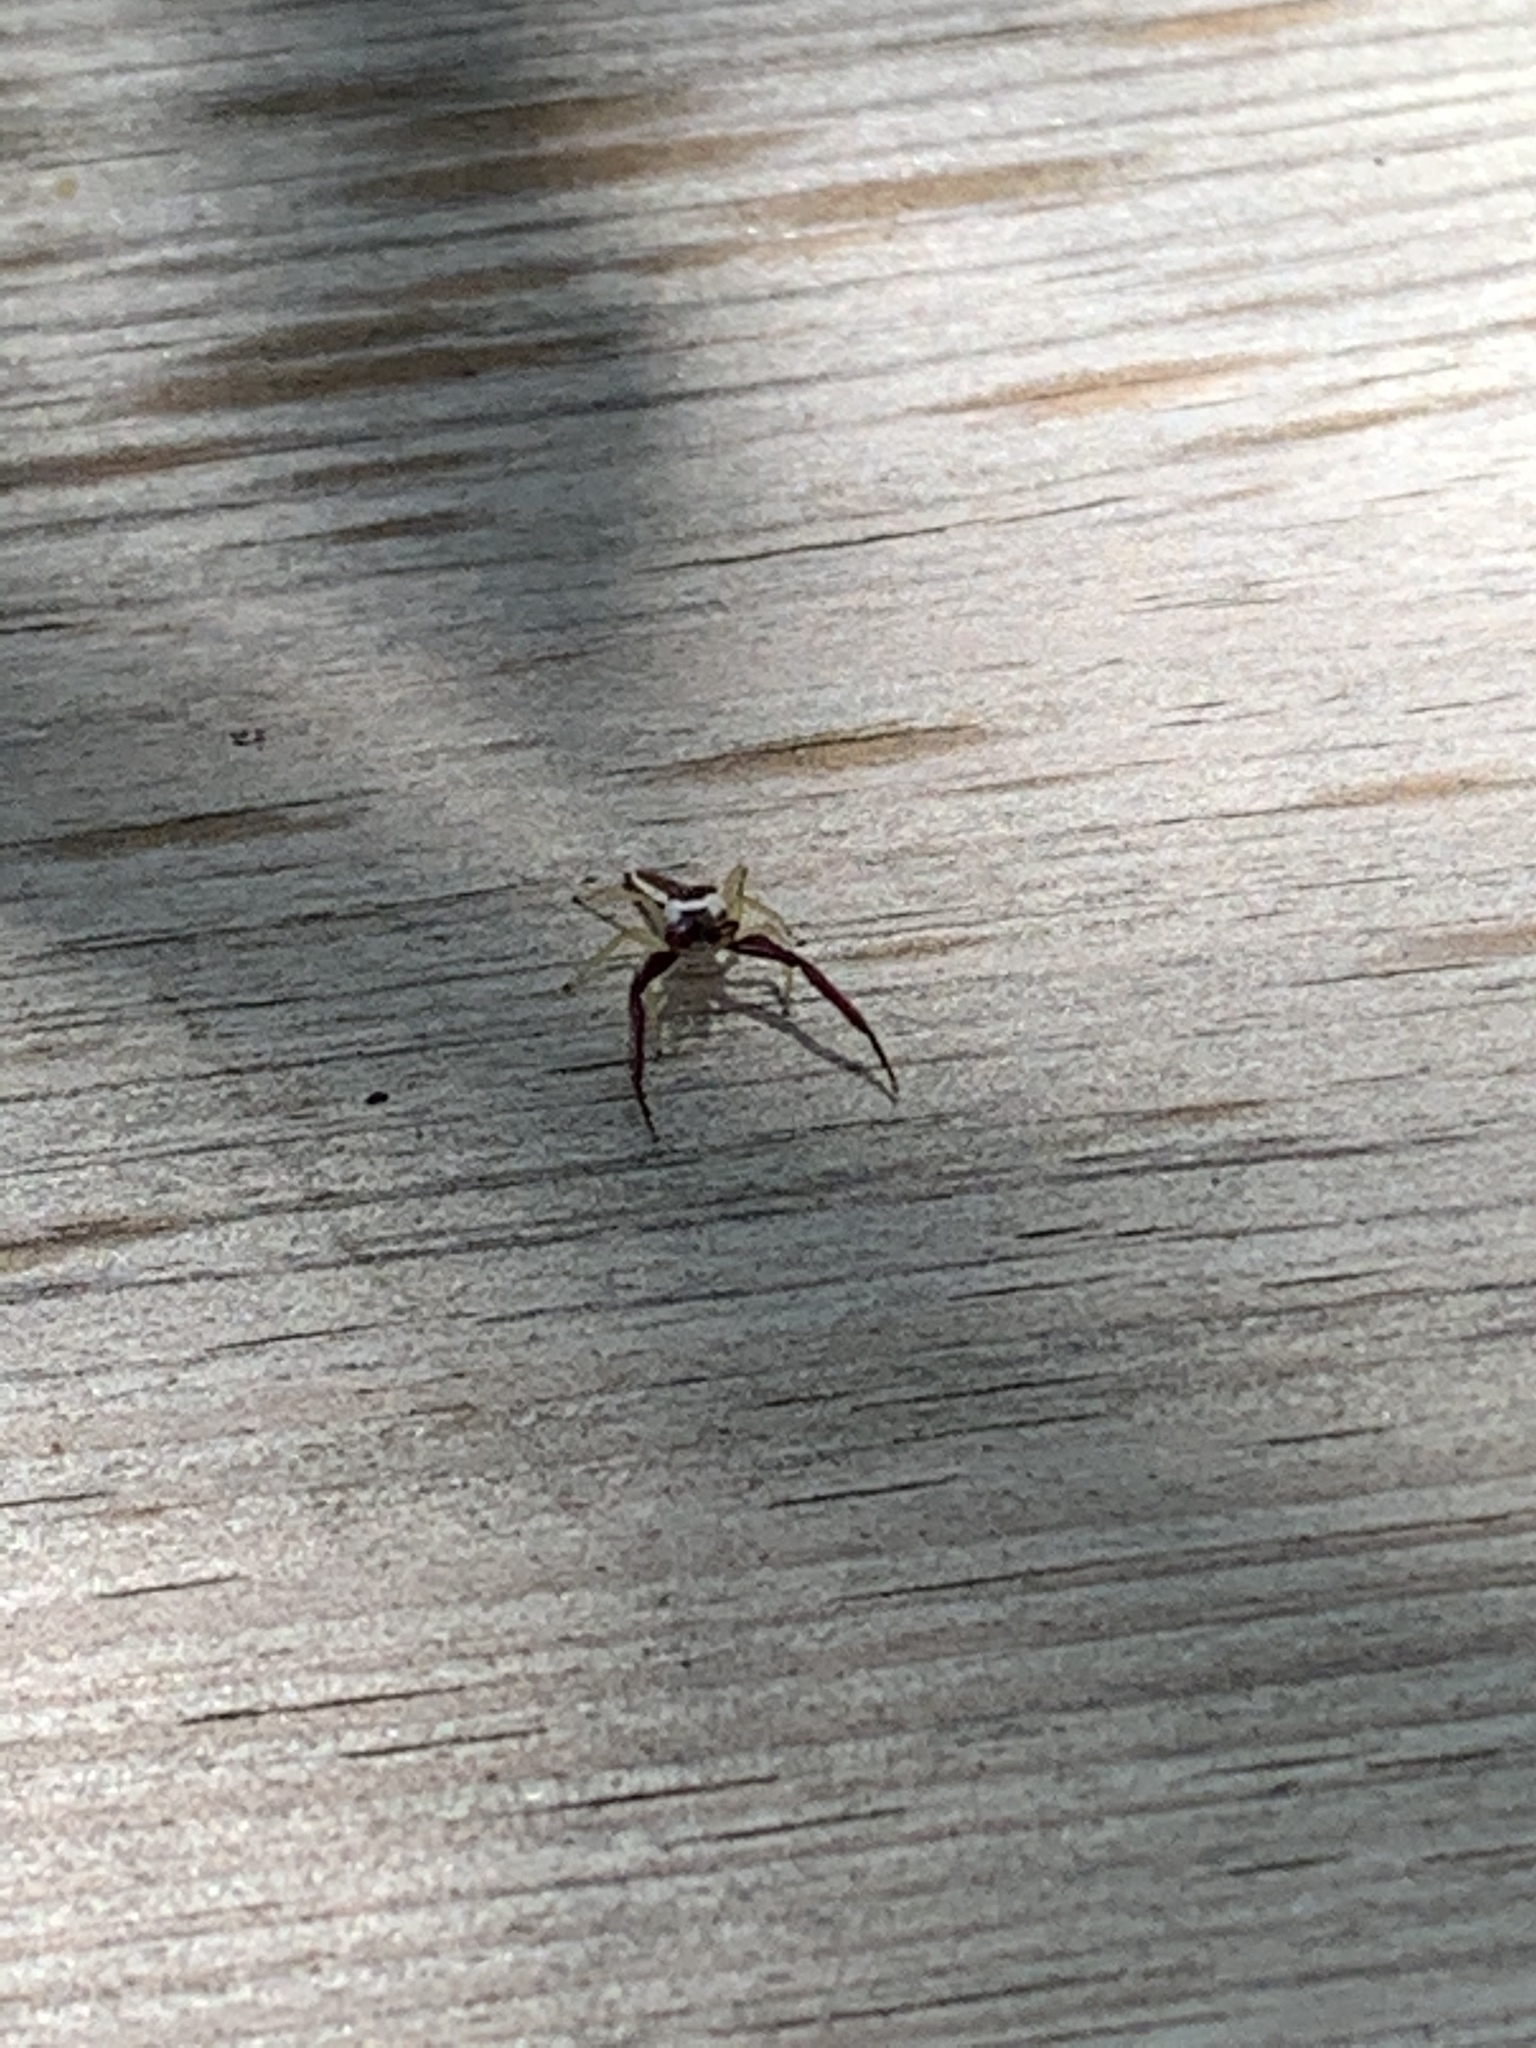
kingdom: Animalia
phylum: Arthropoda
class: Arachnida
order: Araneae
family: Salticidae
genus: Hentzia
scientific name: Hentzia palmarum
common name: Common hentz jumping spider
